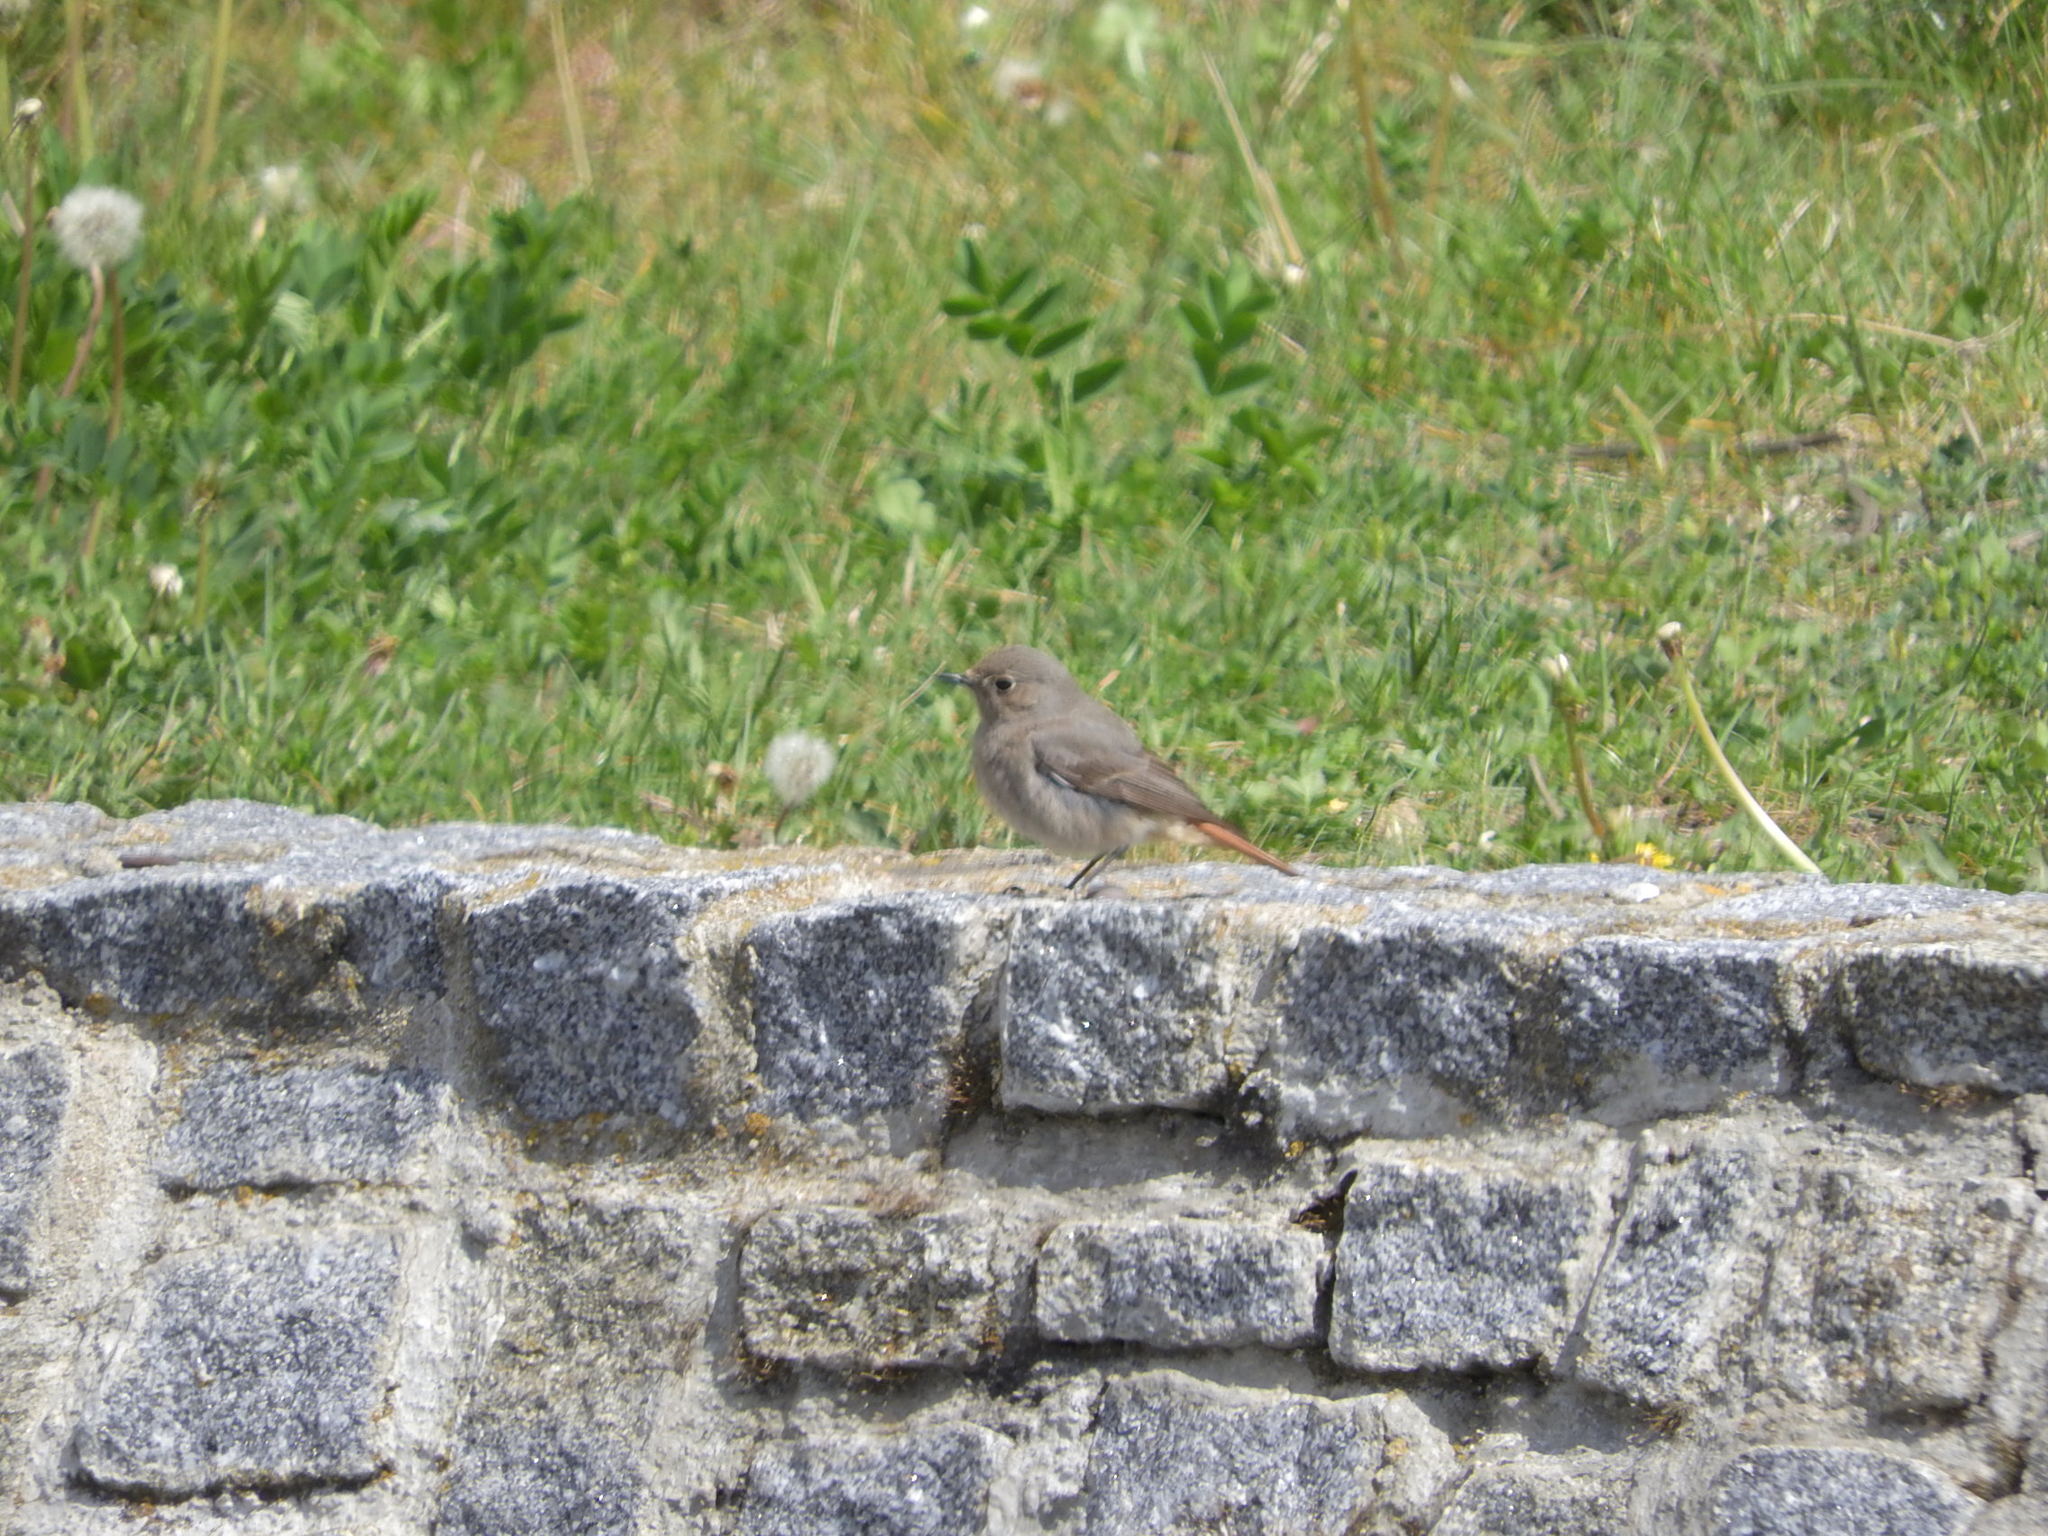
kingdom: Animalia
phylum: Chordata
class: Aves
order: Passeriformes
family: Muscicapidae
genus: Phoenicurus
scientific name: Phoenicurus ochruros
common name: Black redstart
